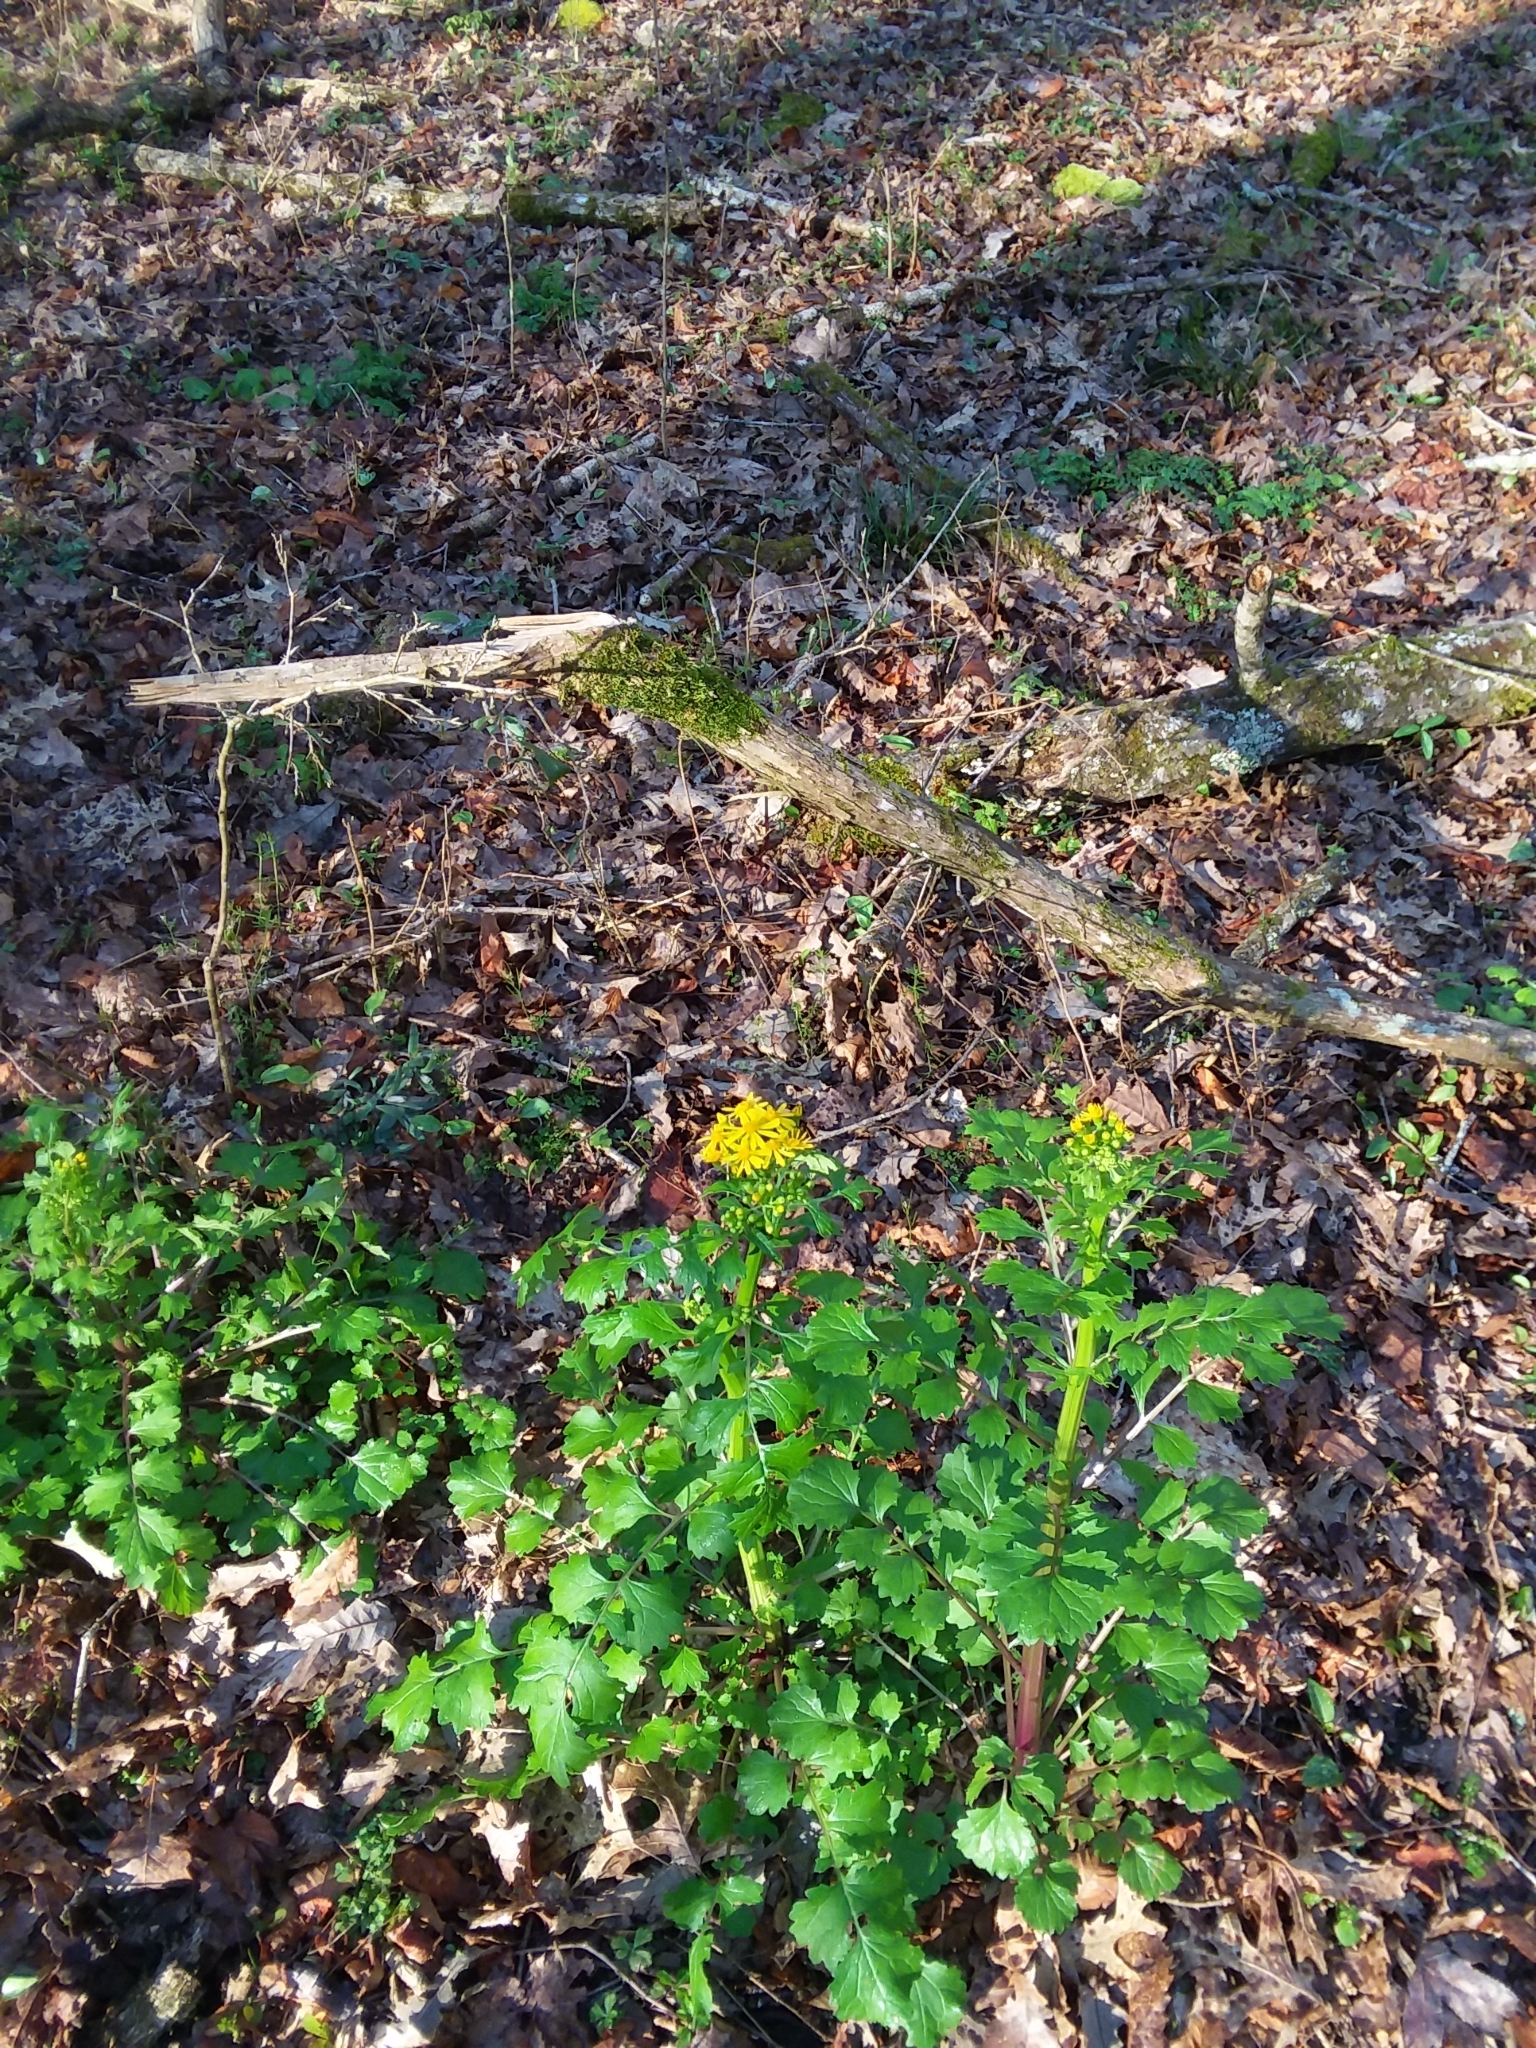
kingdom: Plantae
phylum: Tracheophyta
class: Magnoliopsida
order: Asterales
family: Asteraceae
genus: Packera
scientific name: Packera glabella
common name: Butterweed
